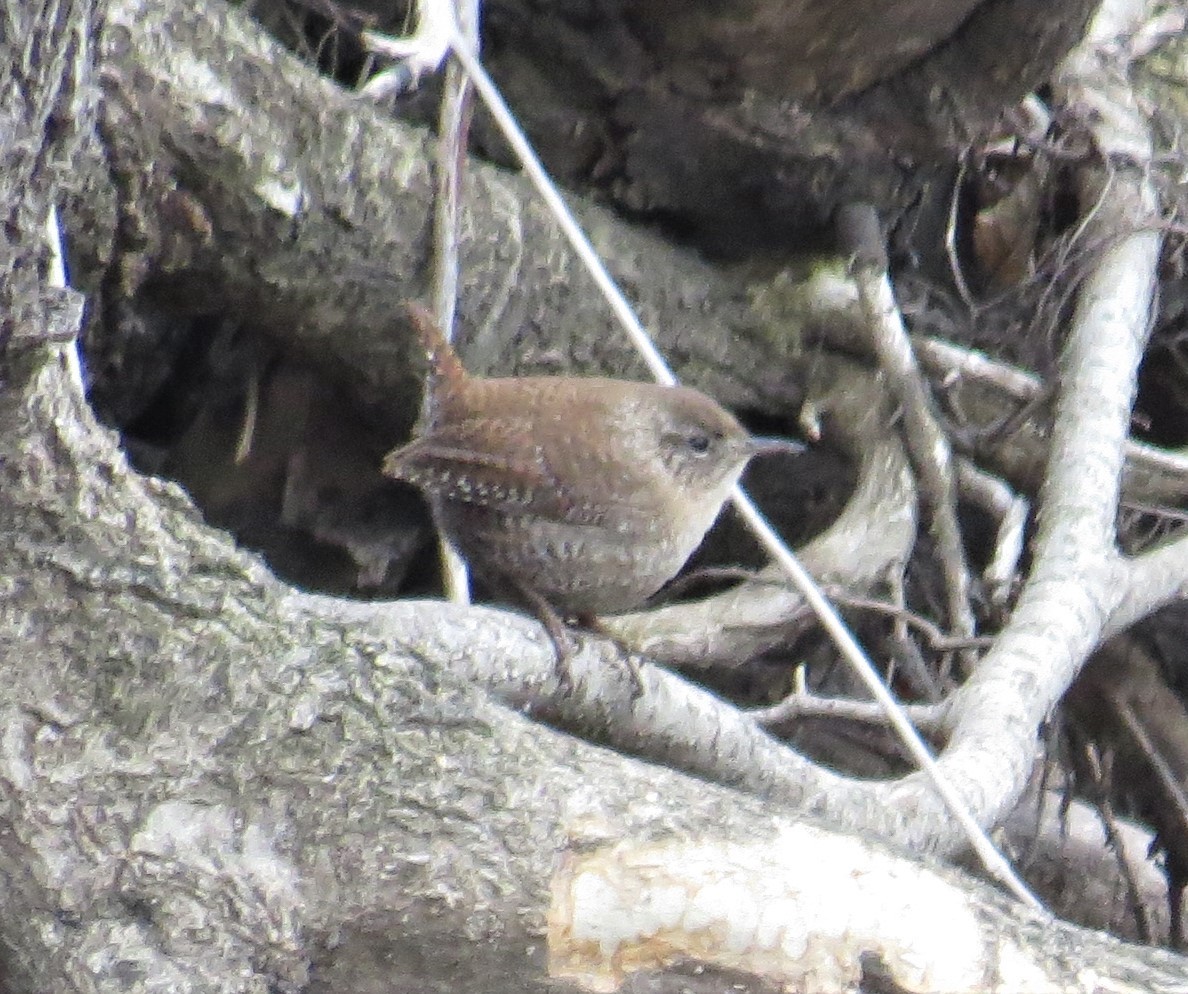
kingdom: Animalia
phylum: Chordata
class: Aves
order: Passeriformes
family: Troglodytidae
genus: Troglodytes
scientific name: Troglodytes hiemalis
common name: Winter wren
